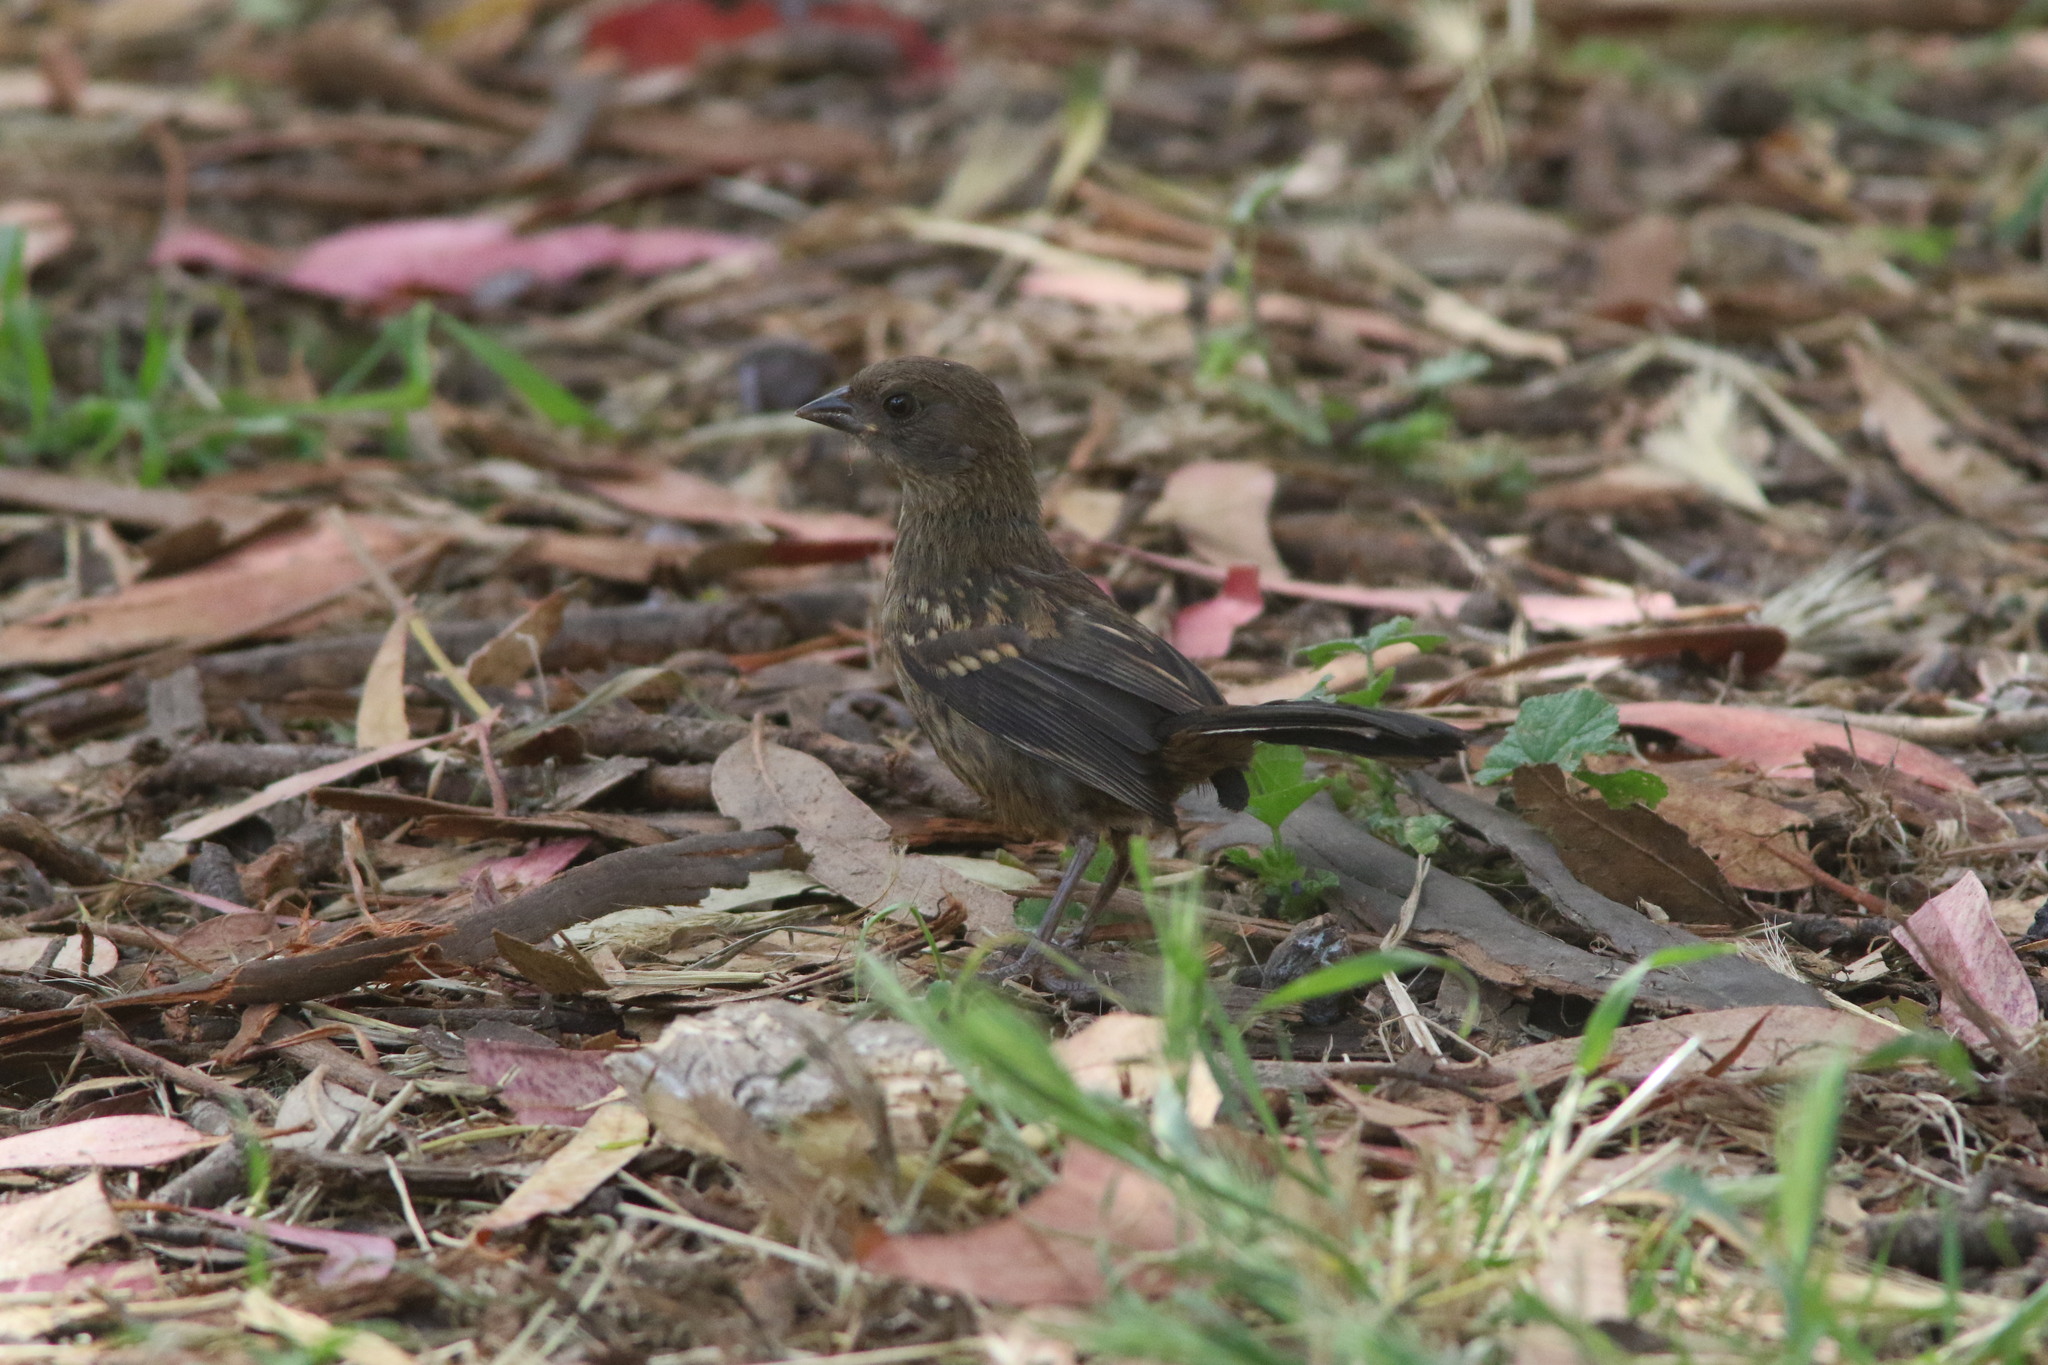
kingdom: Animalia
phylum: Chordata
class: Aves
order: Passeriformes
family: Passerellidae
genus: Pipilo
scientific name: Pipilo maculatus
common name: Spotted towhee
